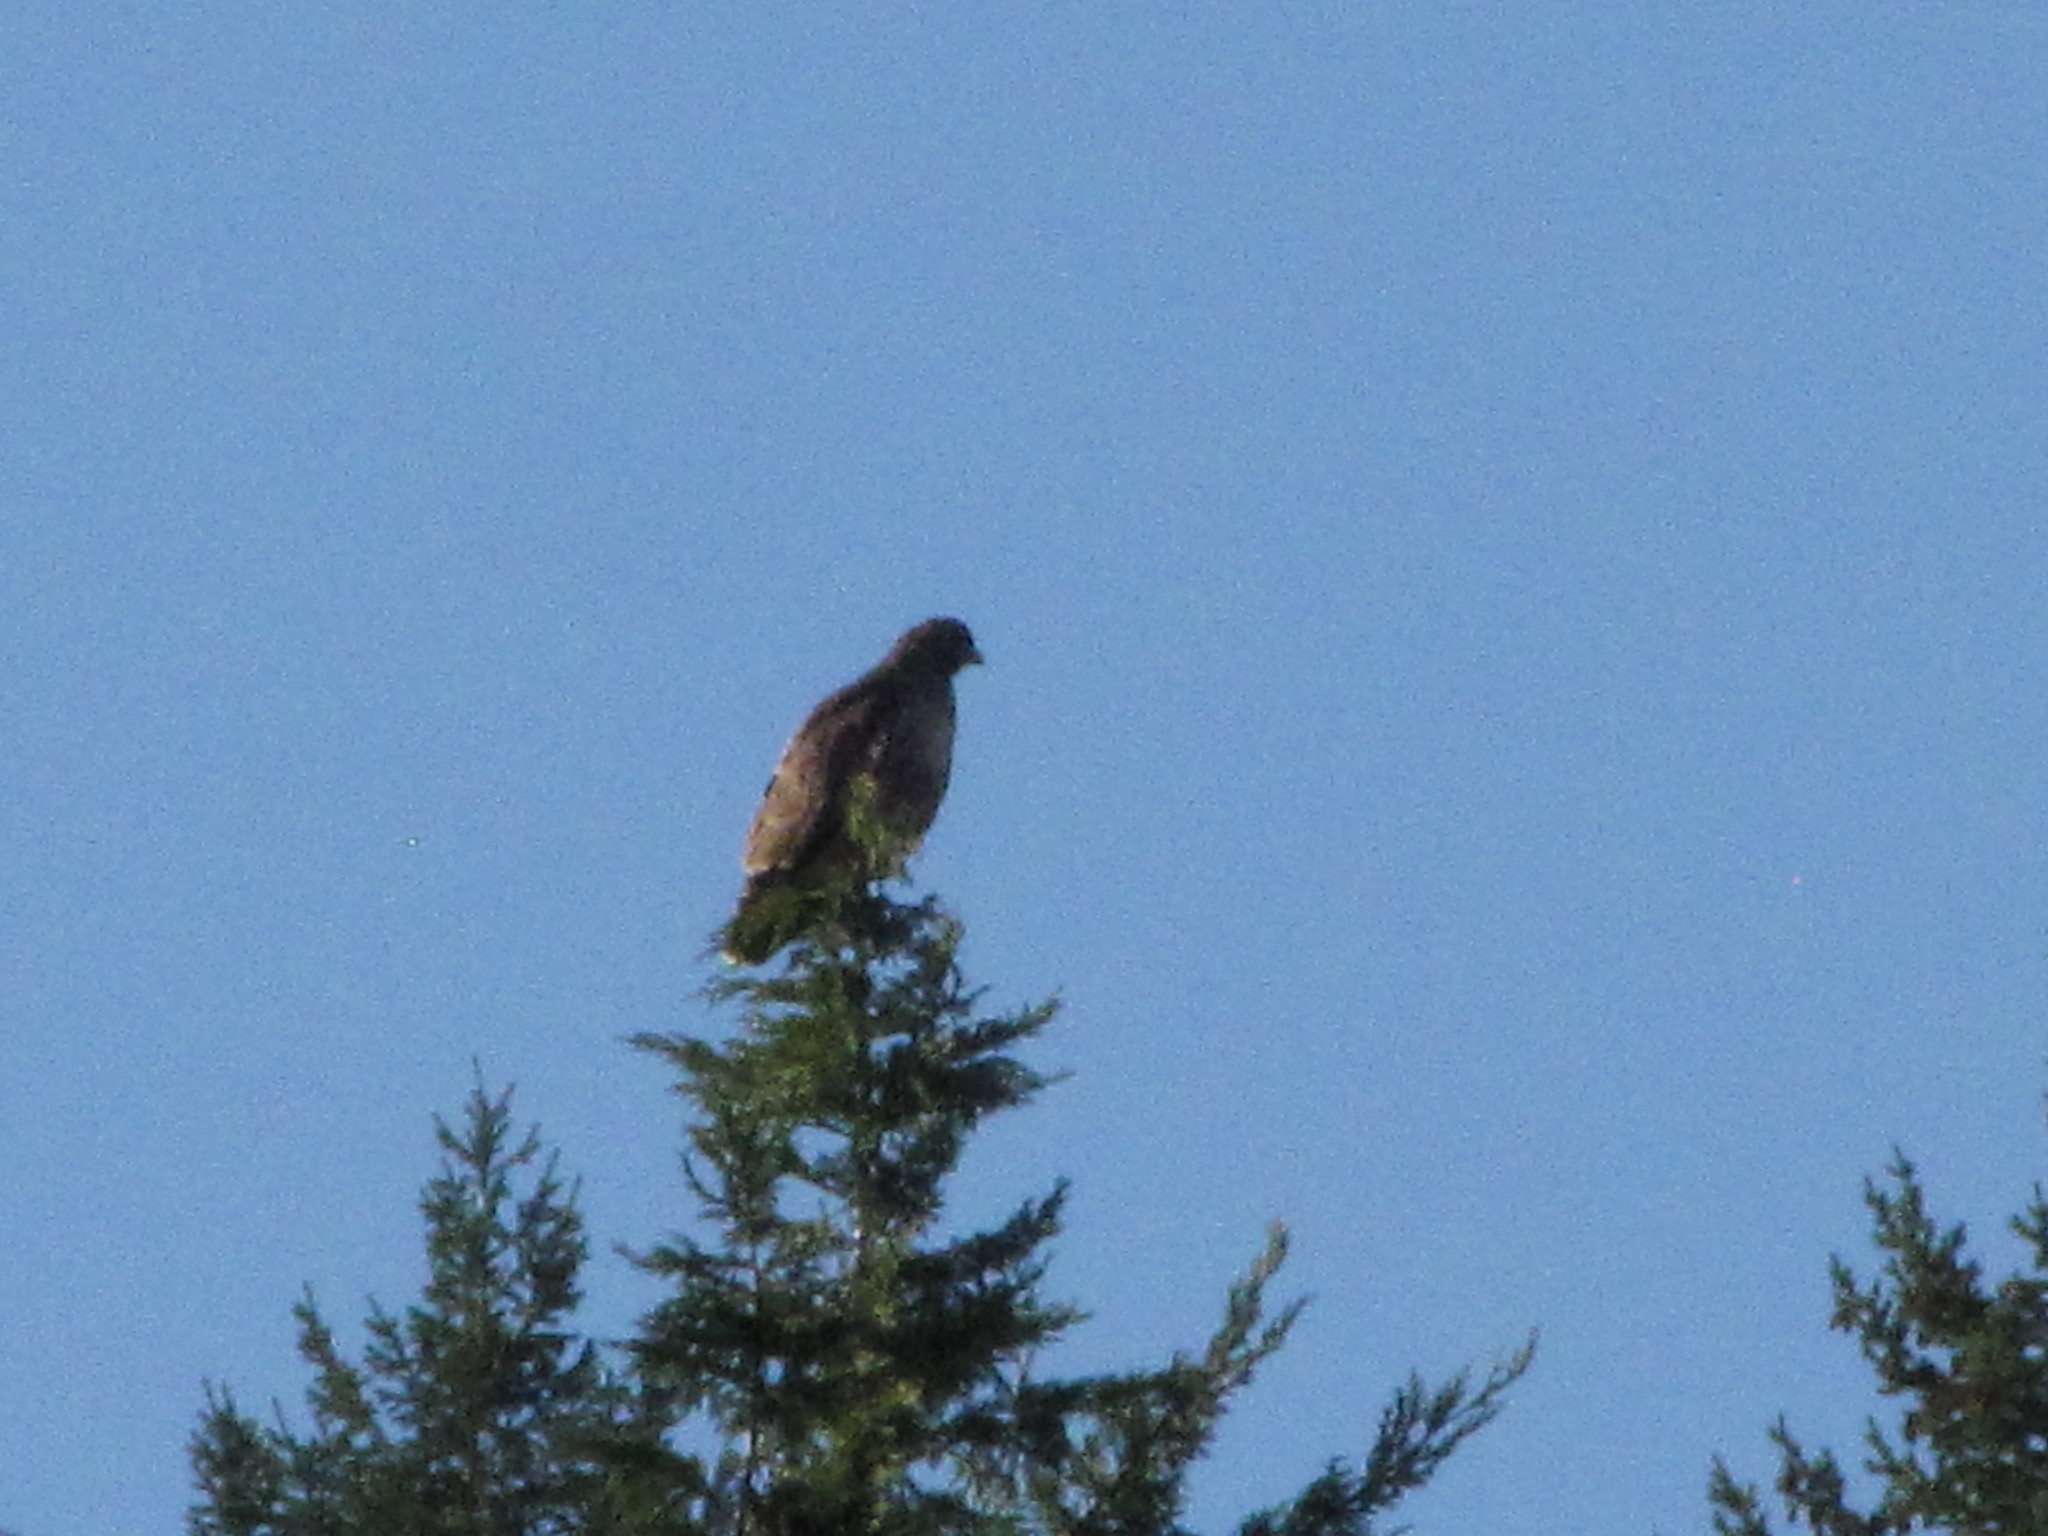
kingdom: Animalia
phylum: Chordata
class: Aves
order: Accipitriformes
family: Accipitridae
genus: Buteo
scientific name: Buteo jamaicensis
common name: Red-tailed hawk
